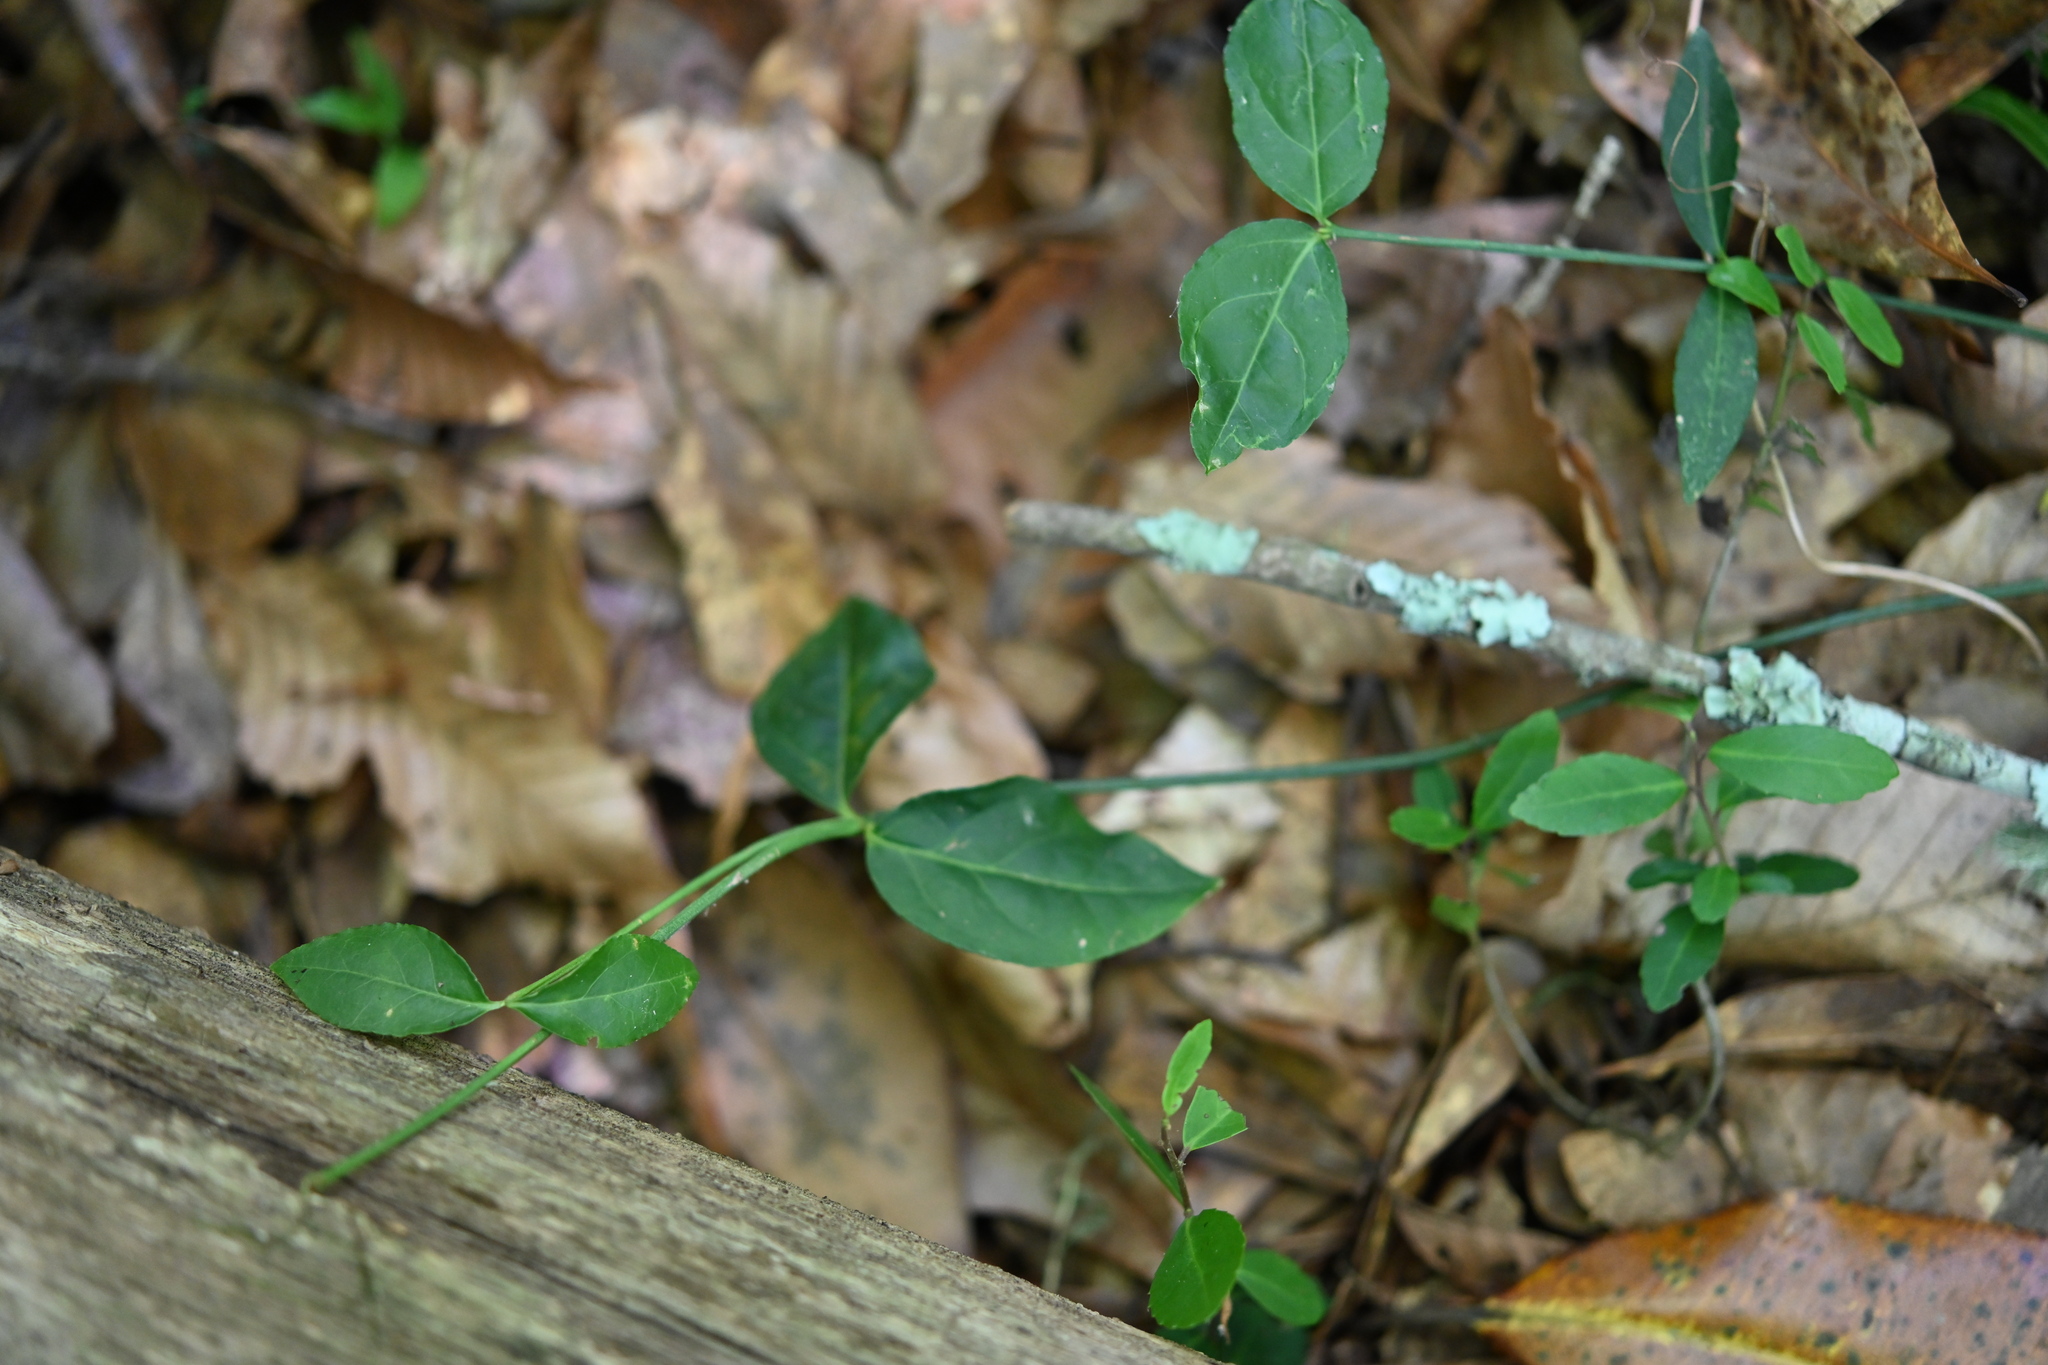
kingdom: Plantae
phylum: Tracheophyta
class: Magnoliopsida
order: Celastrales
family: Celastraceae
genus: Euonymus
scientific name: Euonymus americanus
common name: Bursting-heart
